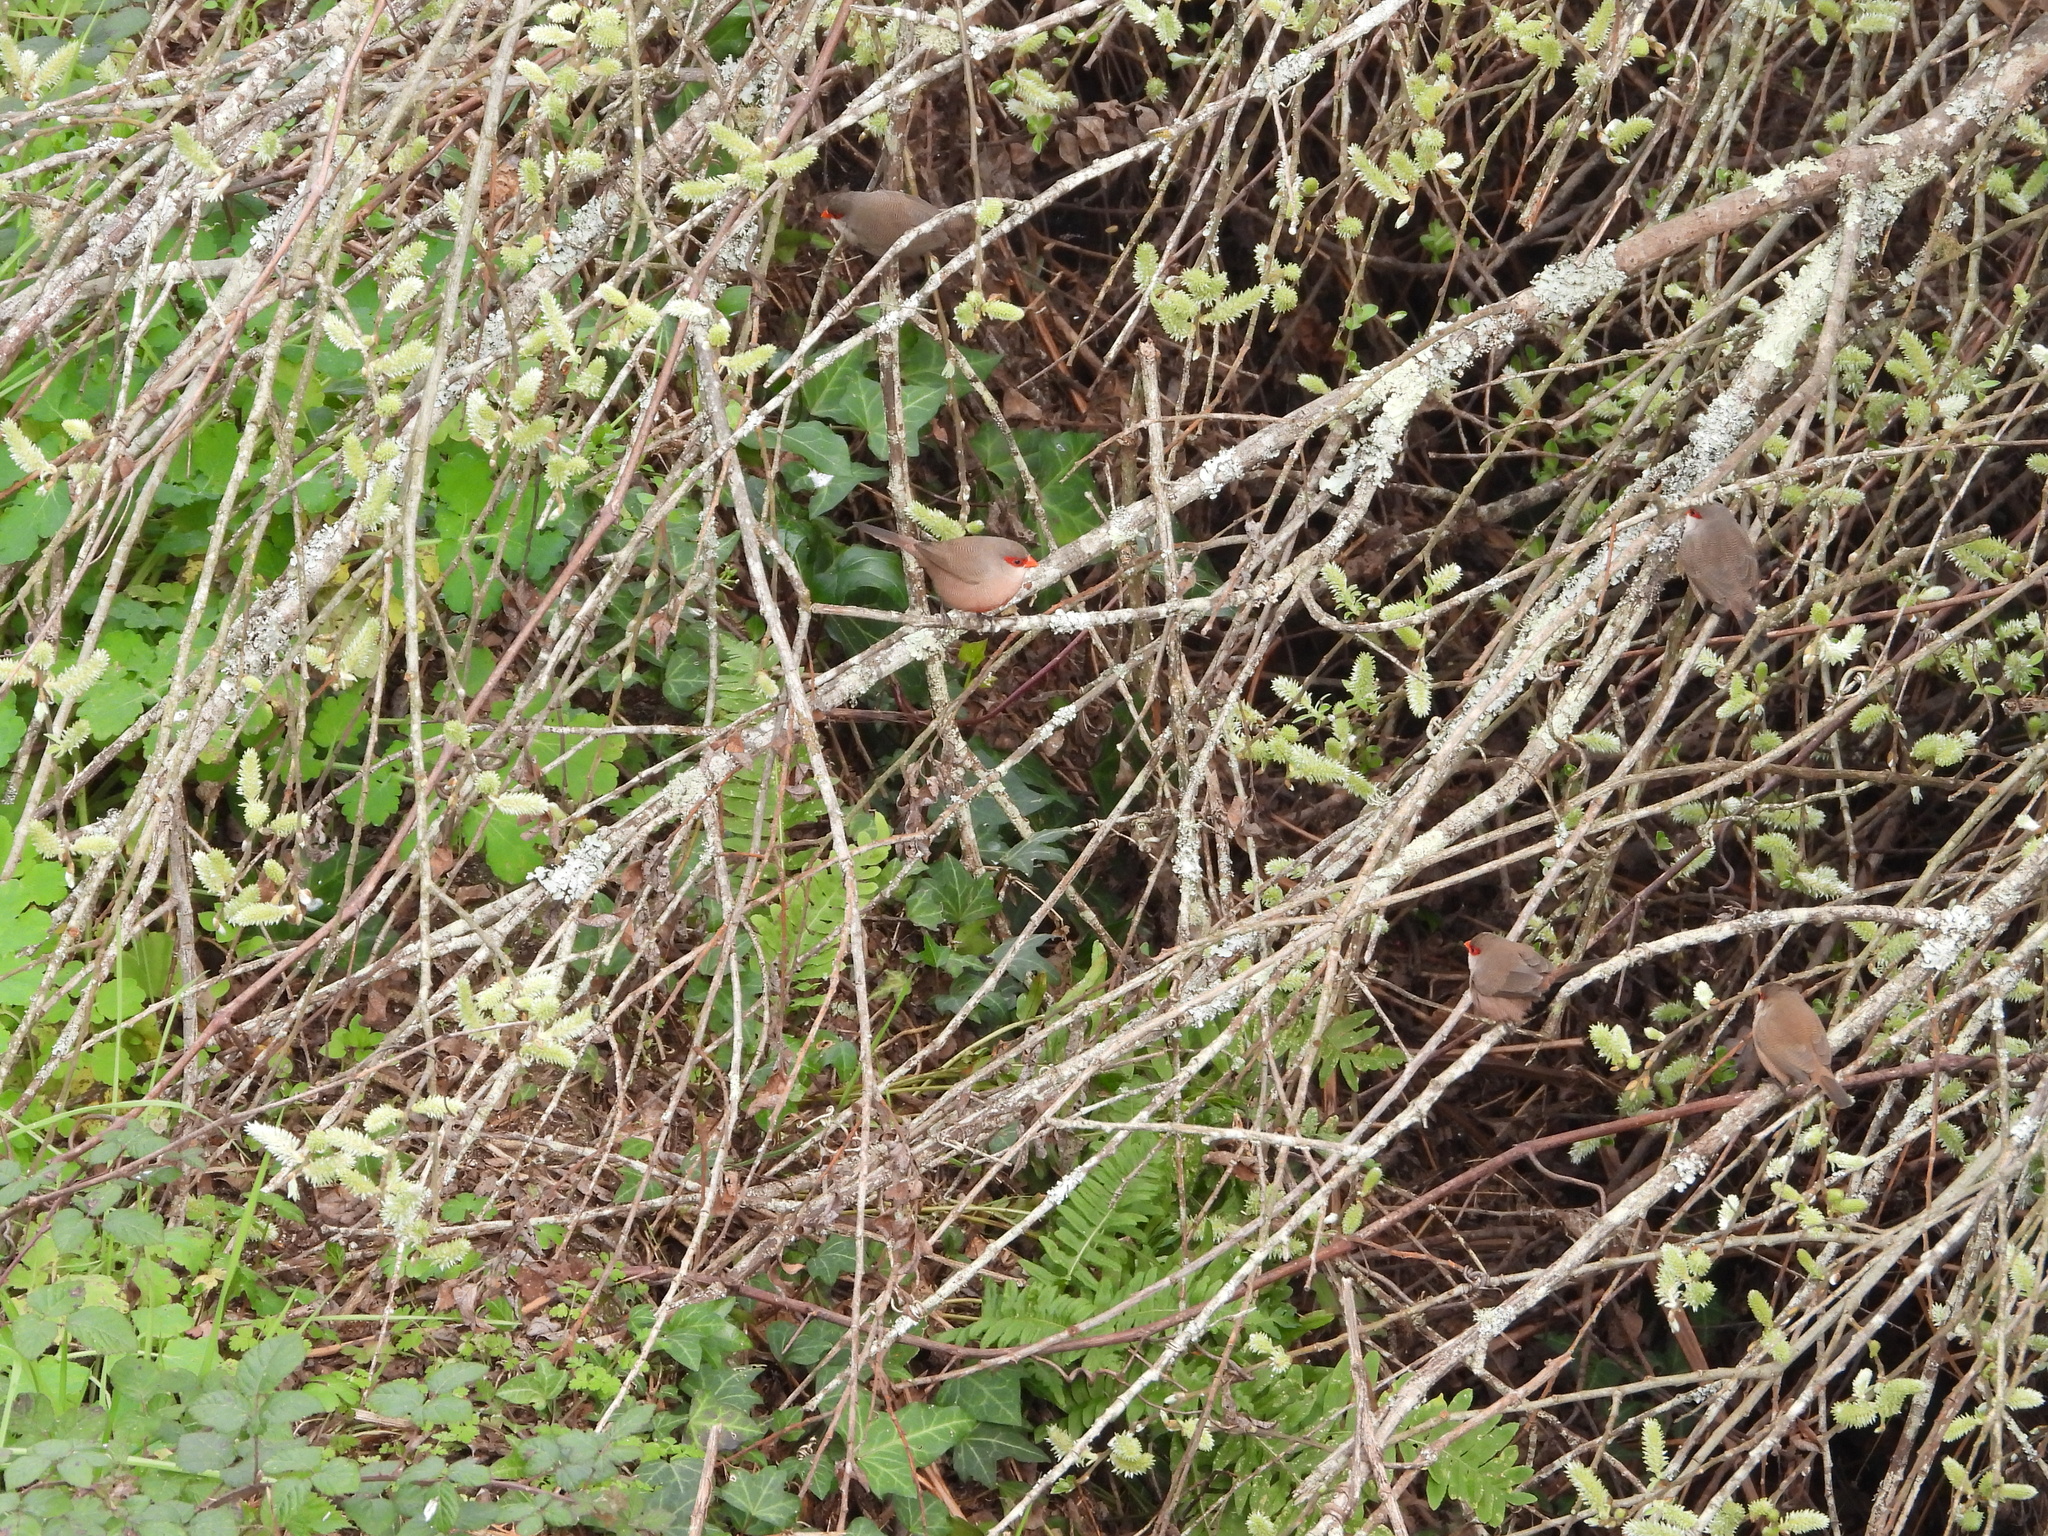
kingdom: Animalia
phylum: Chordata
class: Aves
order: Passeriformes
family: Estrildidae
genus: Estrilda
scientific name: Estrilda astrild
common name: Common waxbill
